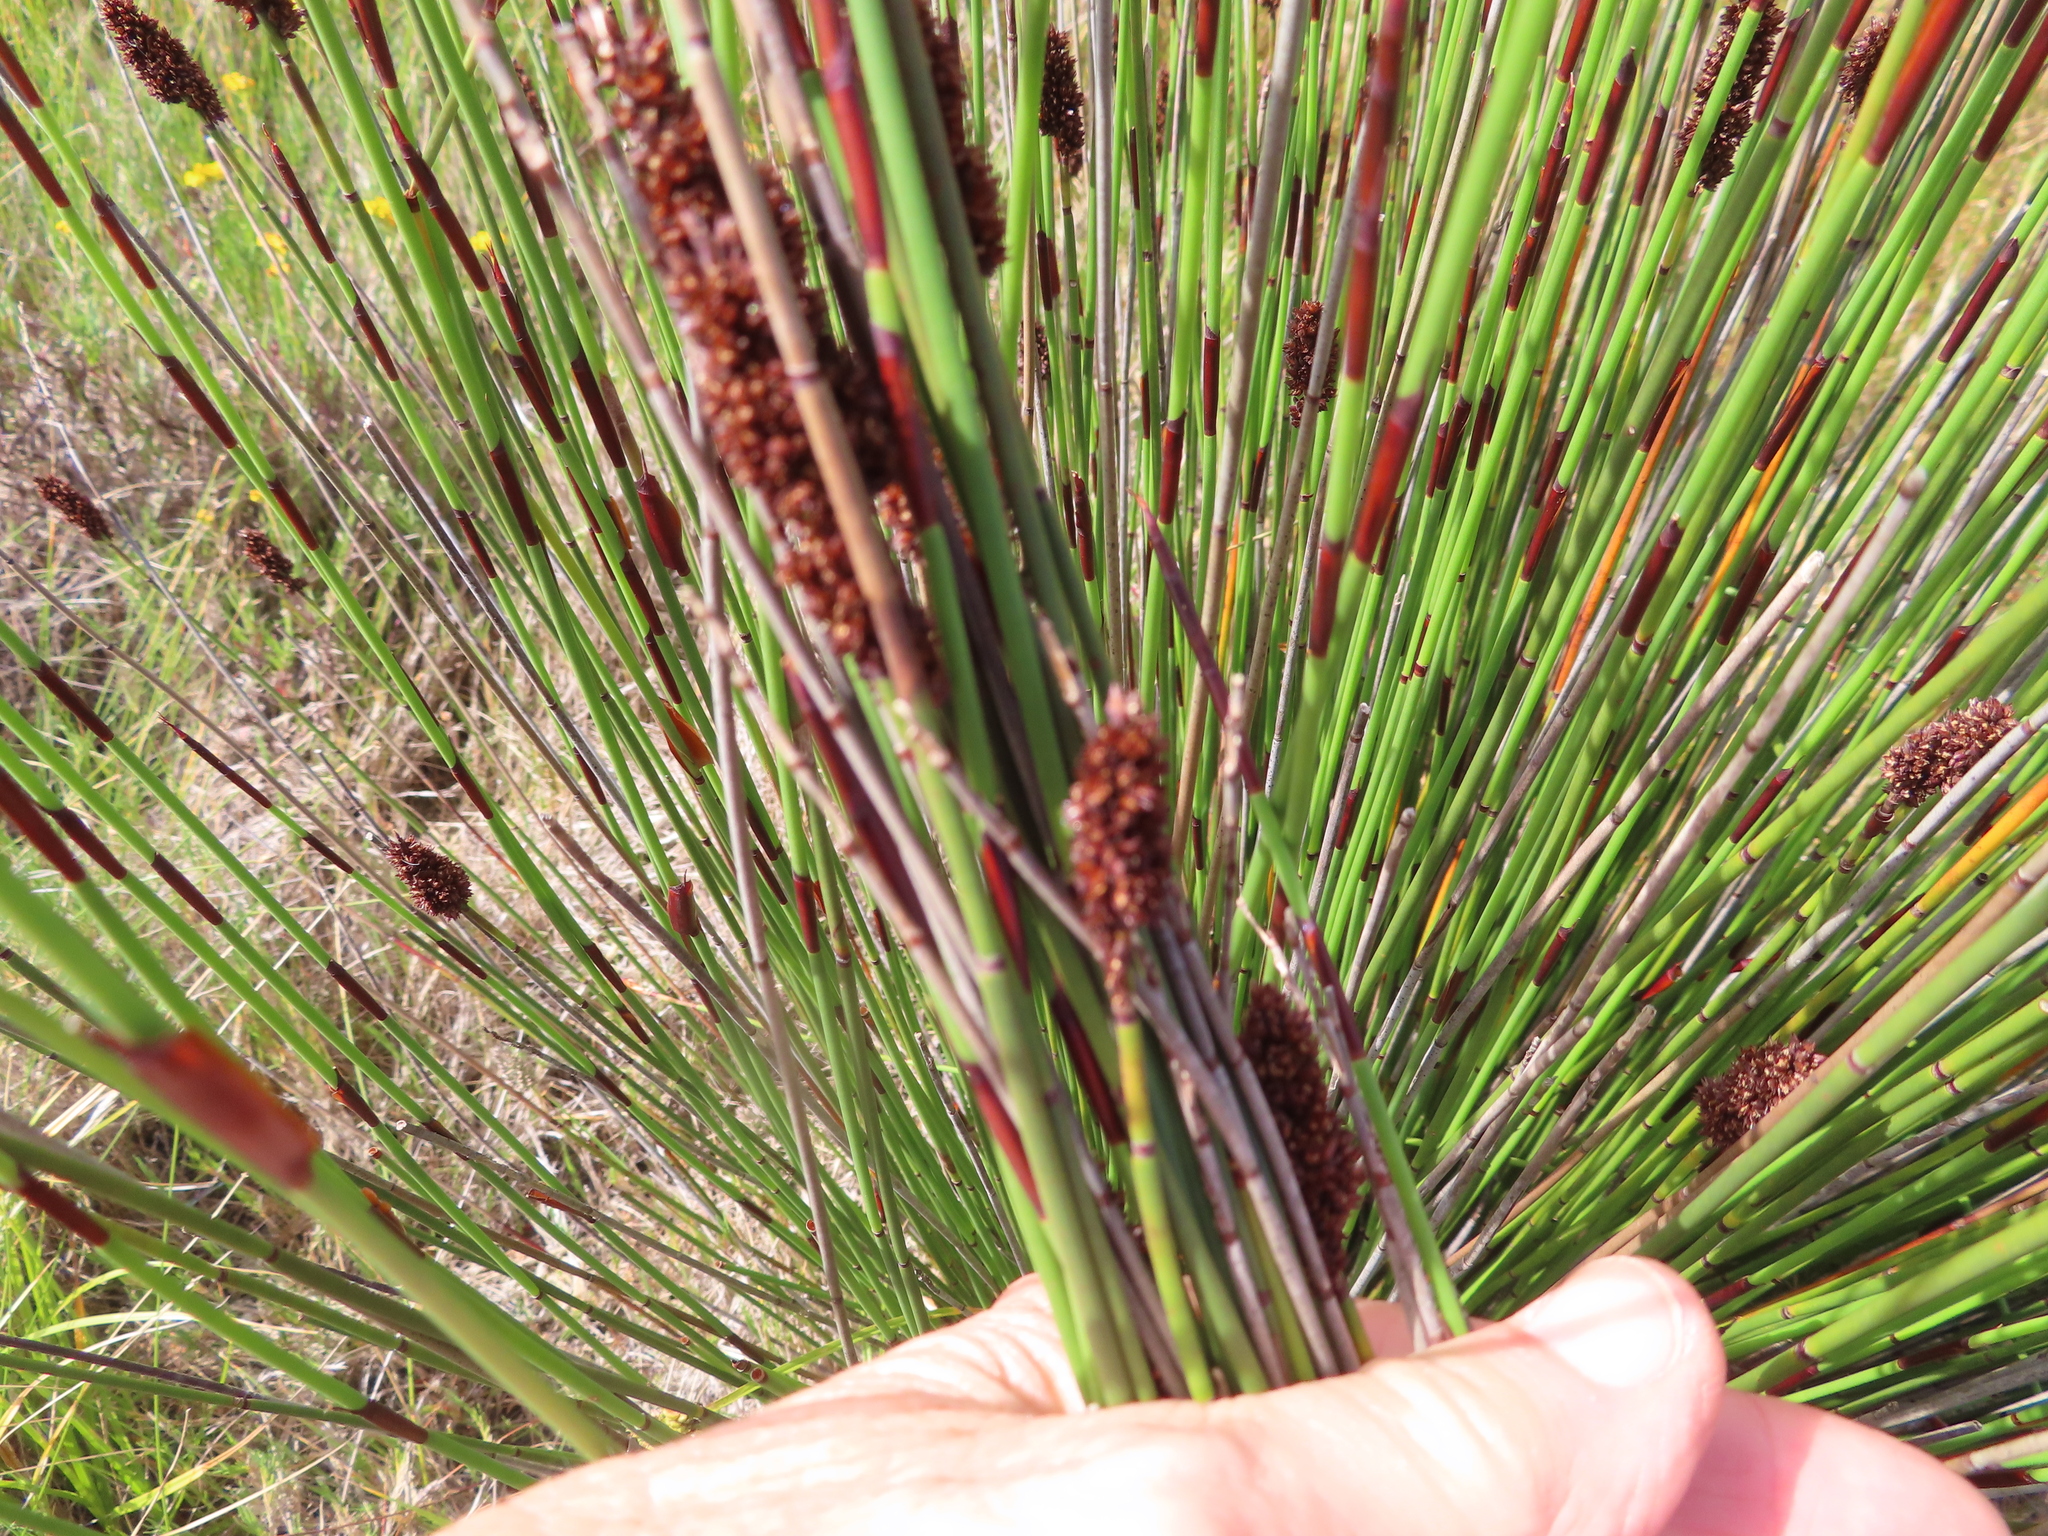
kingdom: Plantae
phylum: Tracheophyta
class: Liliopsida
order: Poales
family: Restionaceae
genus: Elegia
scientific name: Elegia tectorum
